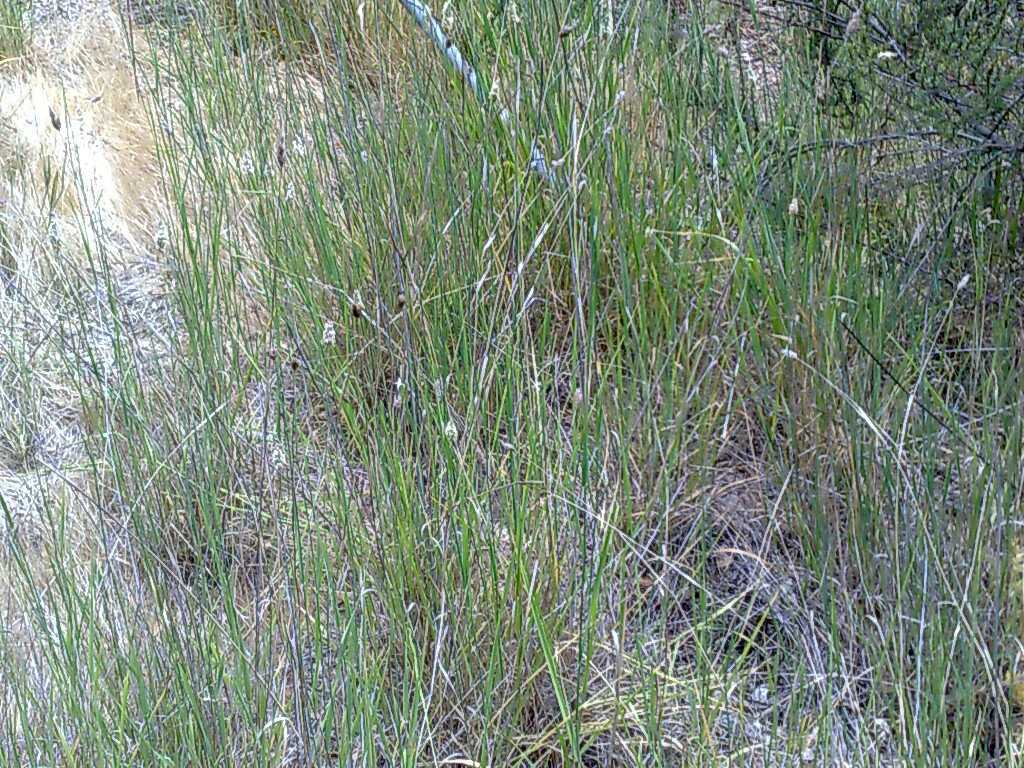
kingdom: Plantae
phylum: Tracheophyta
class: Liliopsida
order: Poales
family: Poaceae
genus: Phalaris
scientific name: Phalaris aquatica
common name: Bulbous canary-grass
